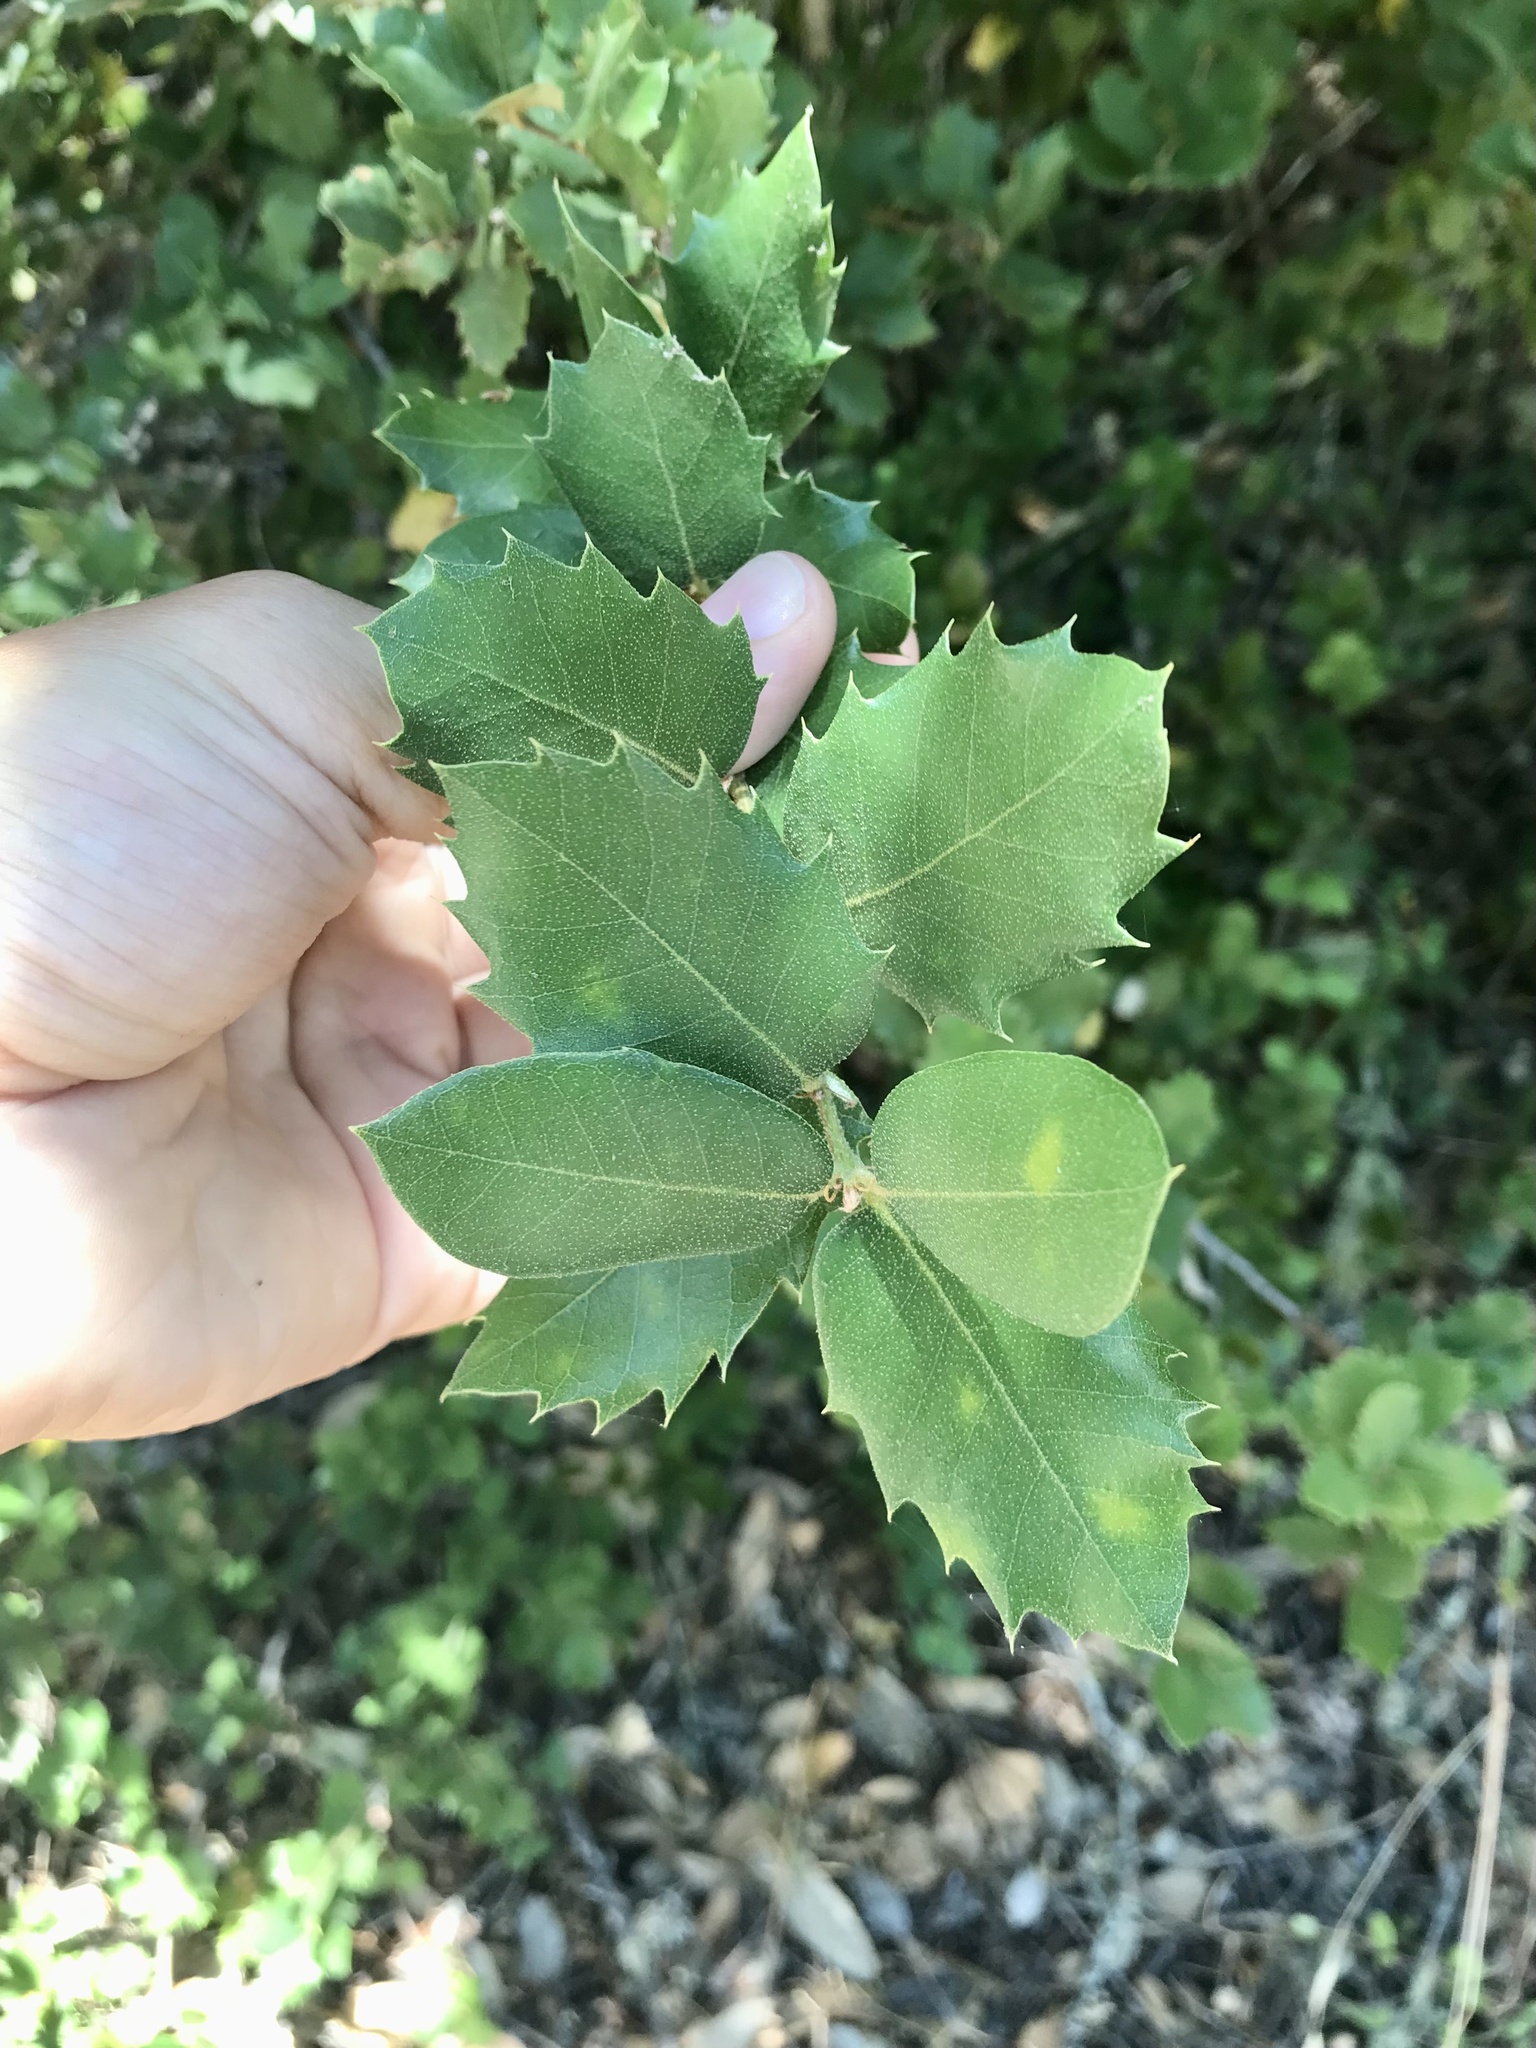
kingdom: Plantae
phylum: Tracheophyta
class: Magnoliopsida
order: Fagales
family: Fagaceae
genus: Quercus
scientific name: Quercus chrysolepis
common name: Canyon live oak
